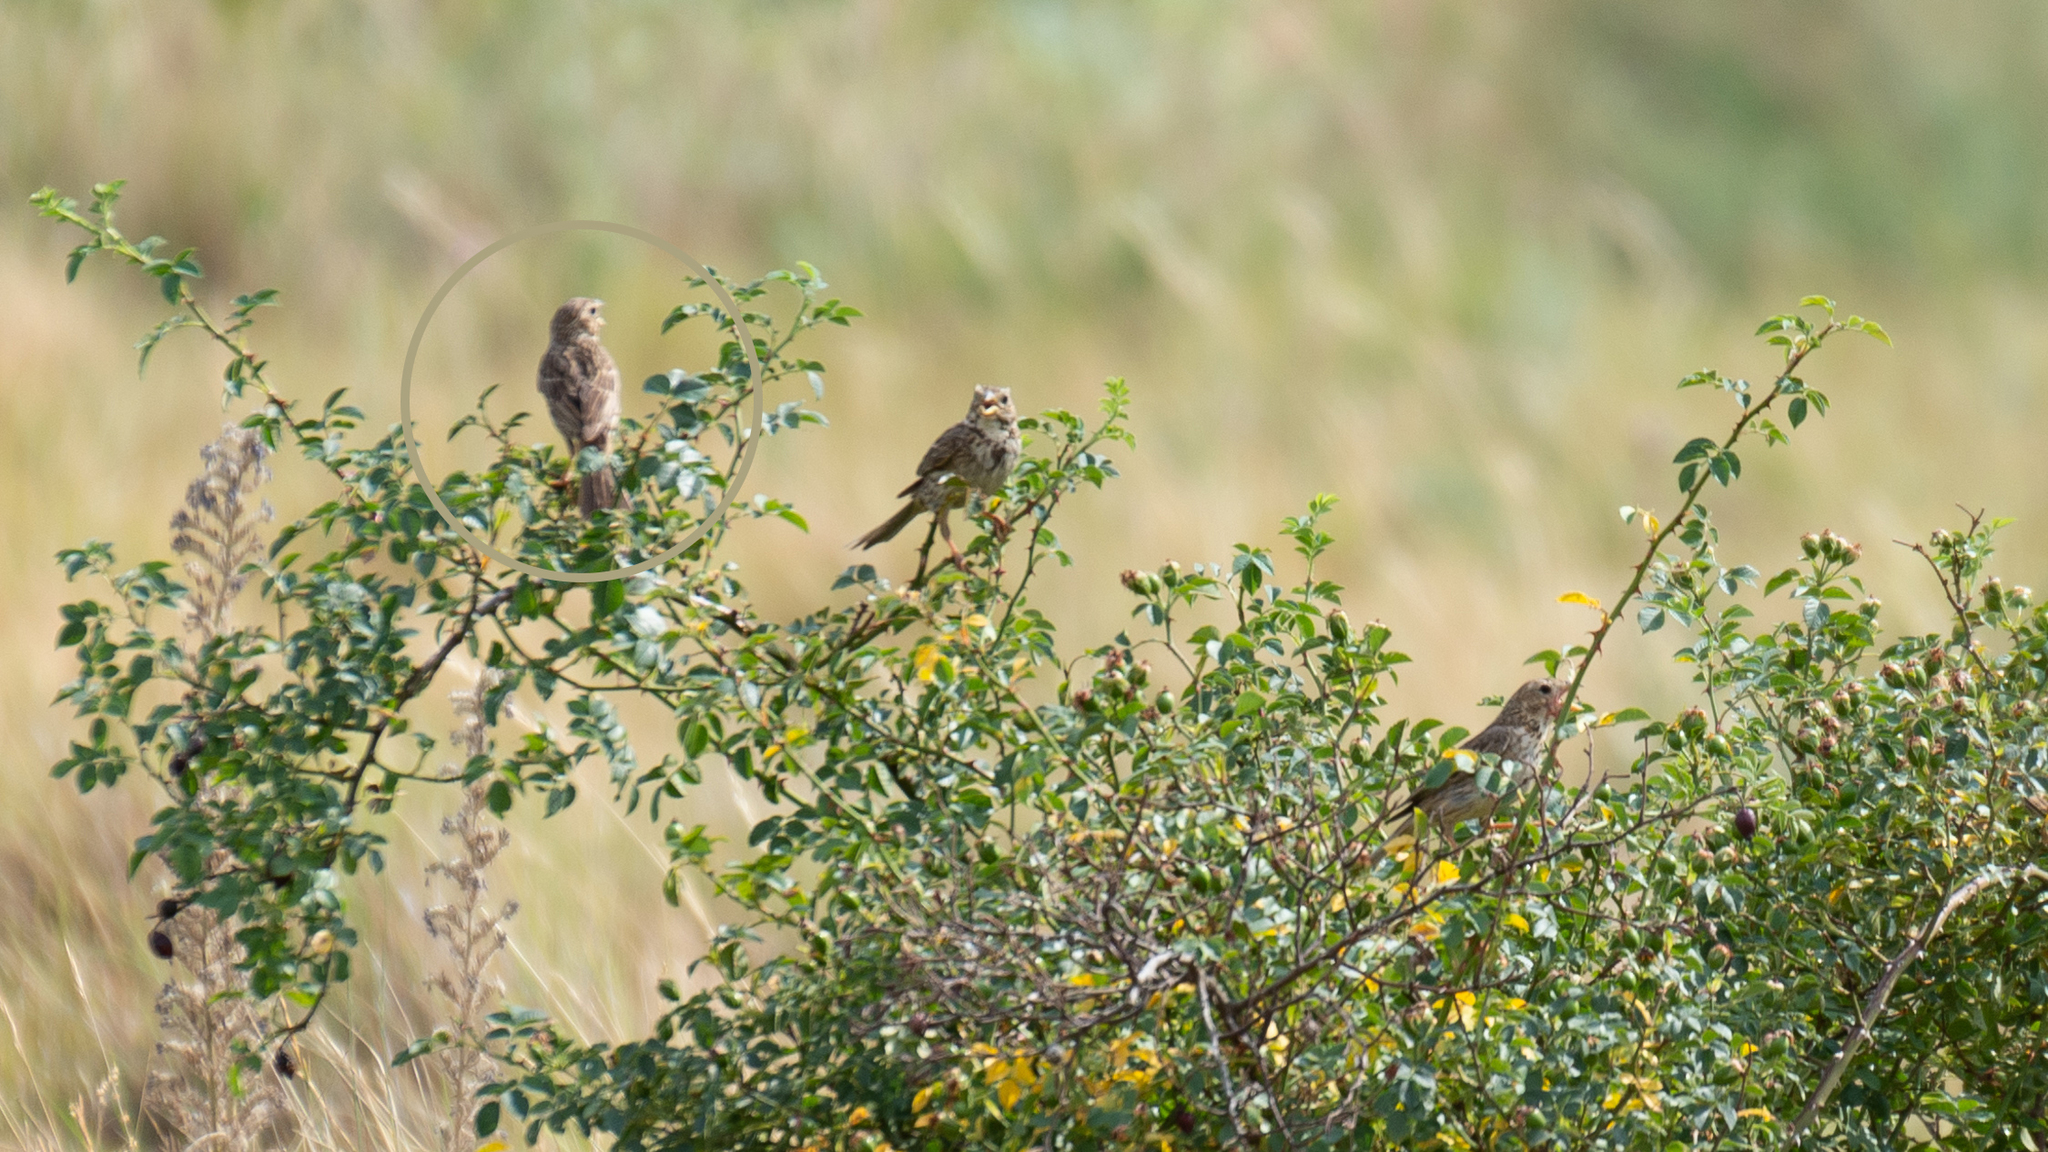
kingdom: Animalia
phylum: Chordata
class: Aves
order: Passeriformes
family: Emberizidae
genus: Emberiza
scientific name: Emberiza calandra
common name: Corn bunting
